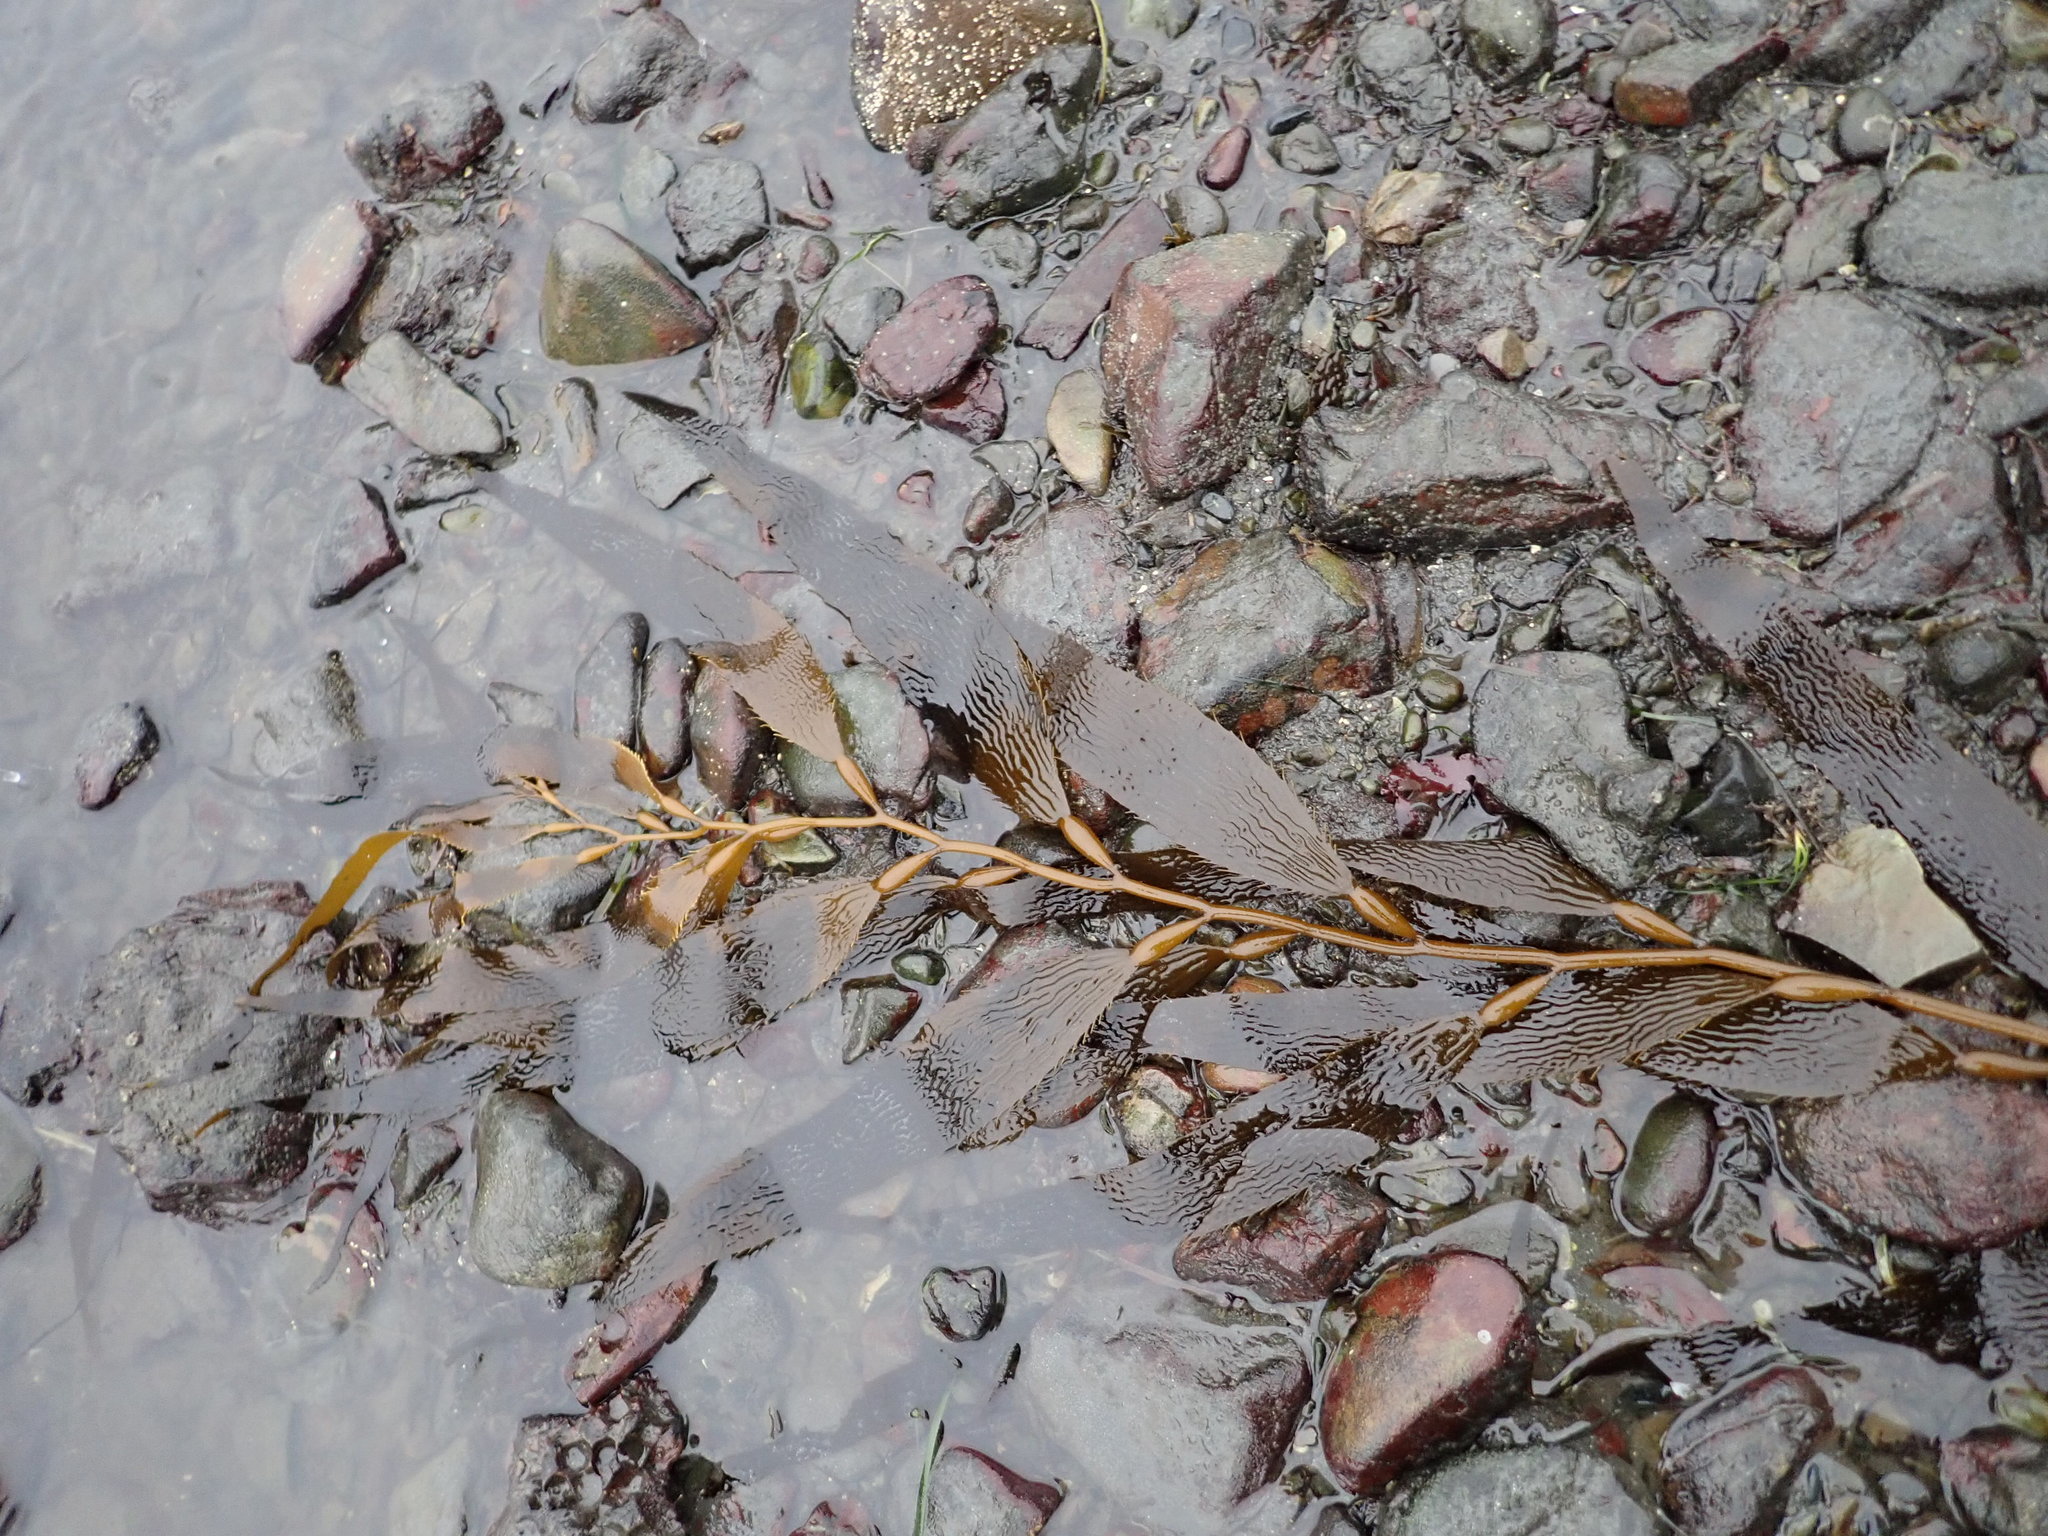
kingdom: Chromista
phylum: Ochrophyta
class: Phaeophyceae
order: Laminariales
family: Laminariaceae
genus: Macrocystis
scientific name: Macrocystis pyrifera
